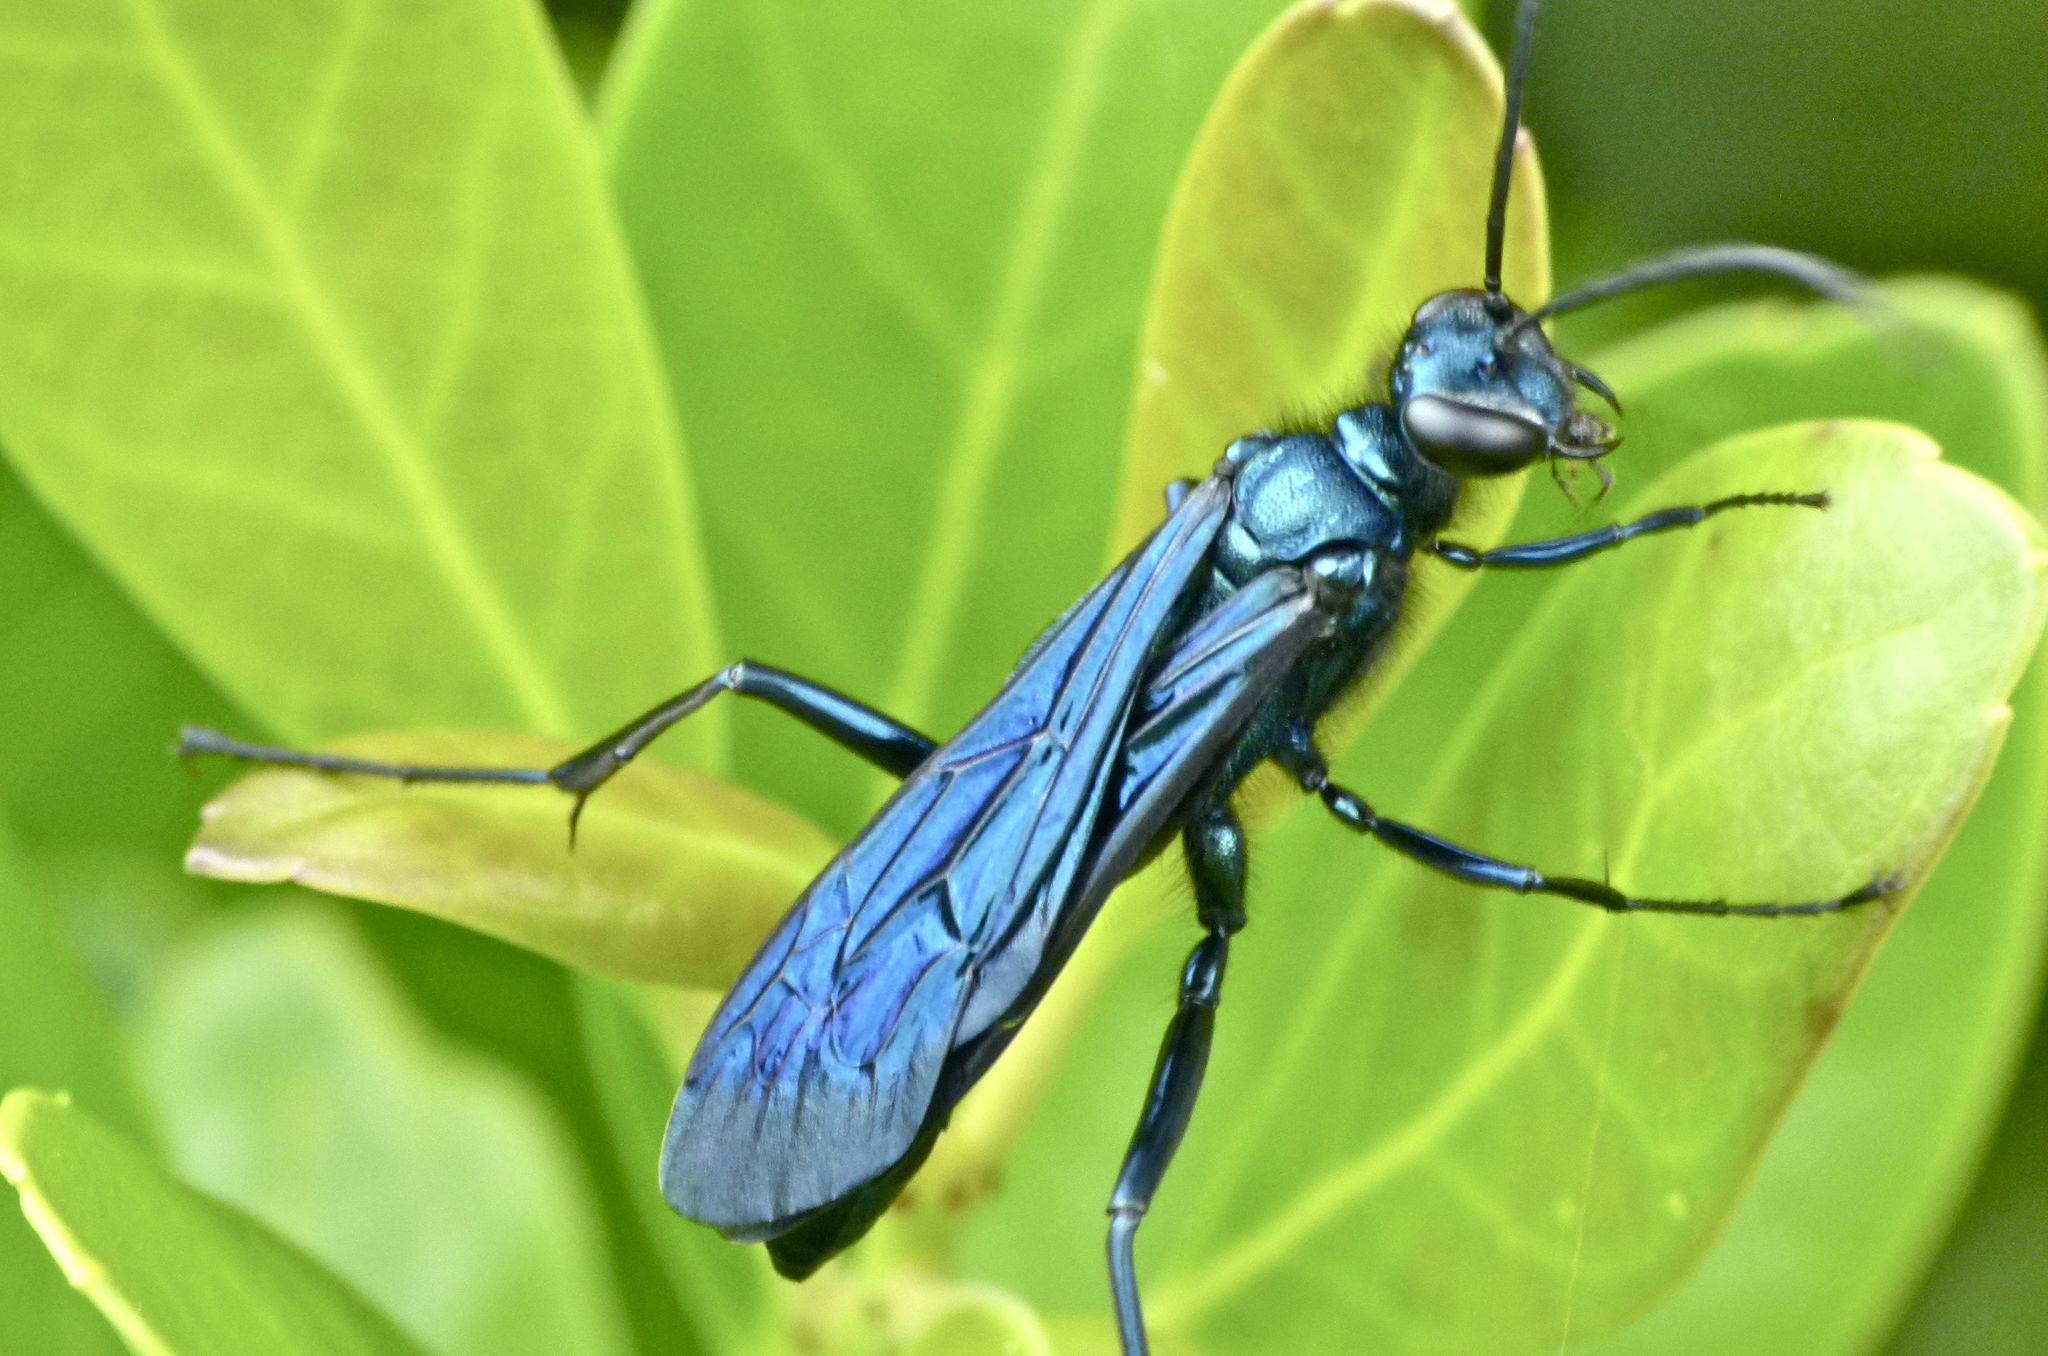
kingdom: Animalia
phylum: Arthropoda
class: Insecta
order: Hymenoptera
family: Sphecidae
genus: Chalybion
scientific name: Chalybion californicum
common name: Mud dauber
